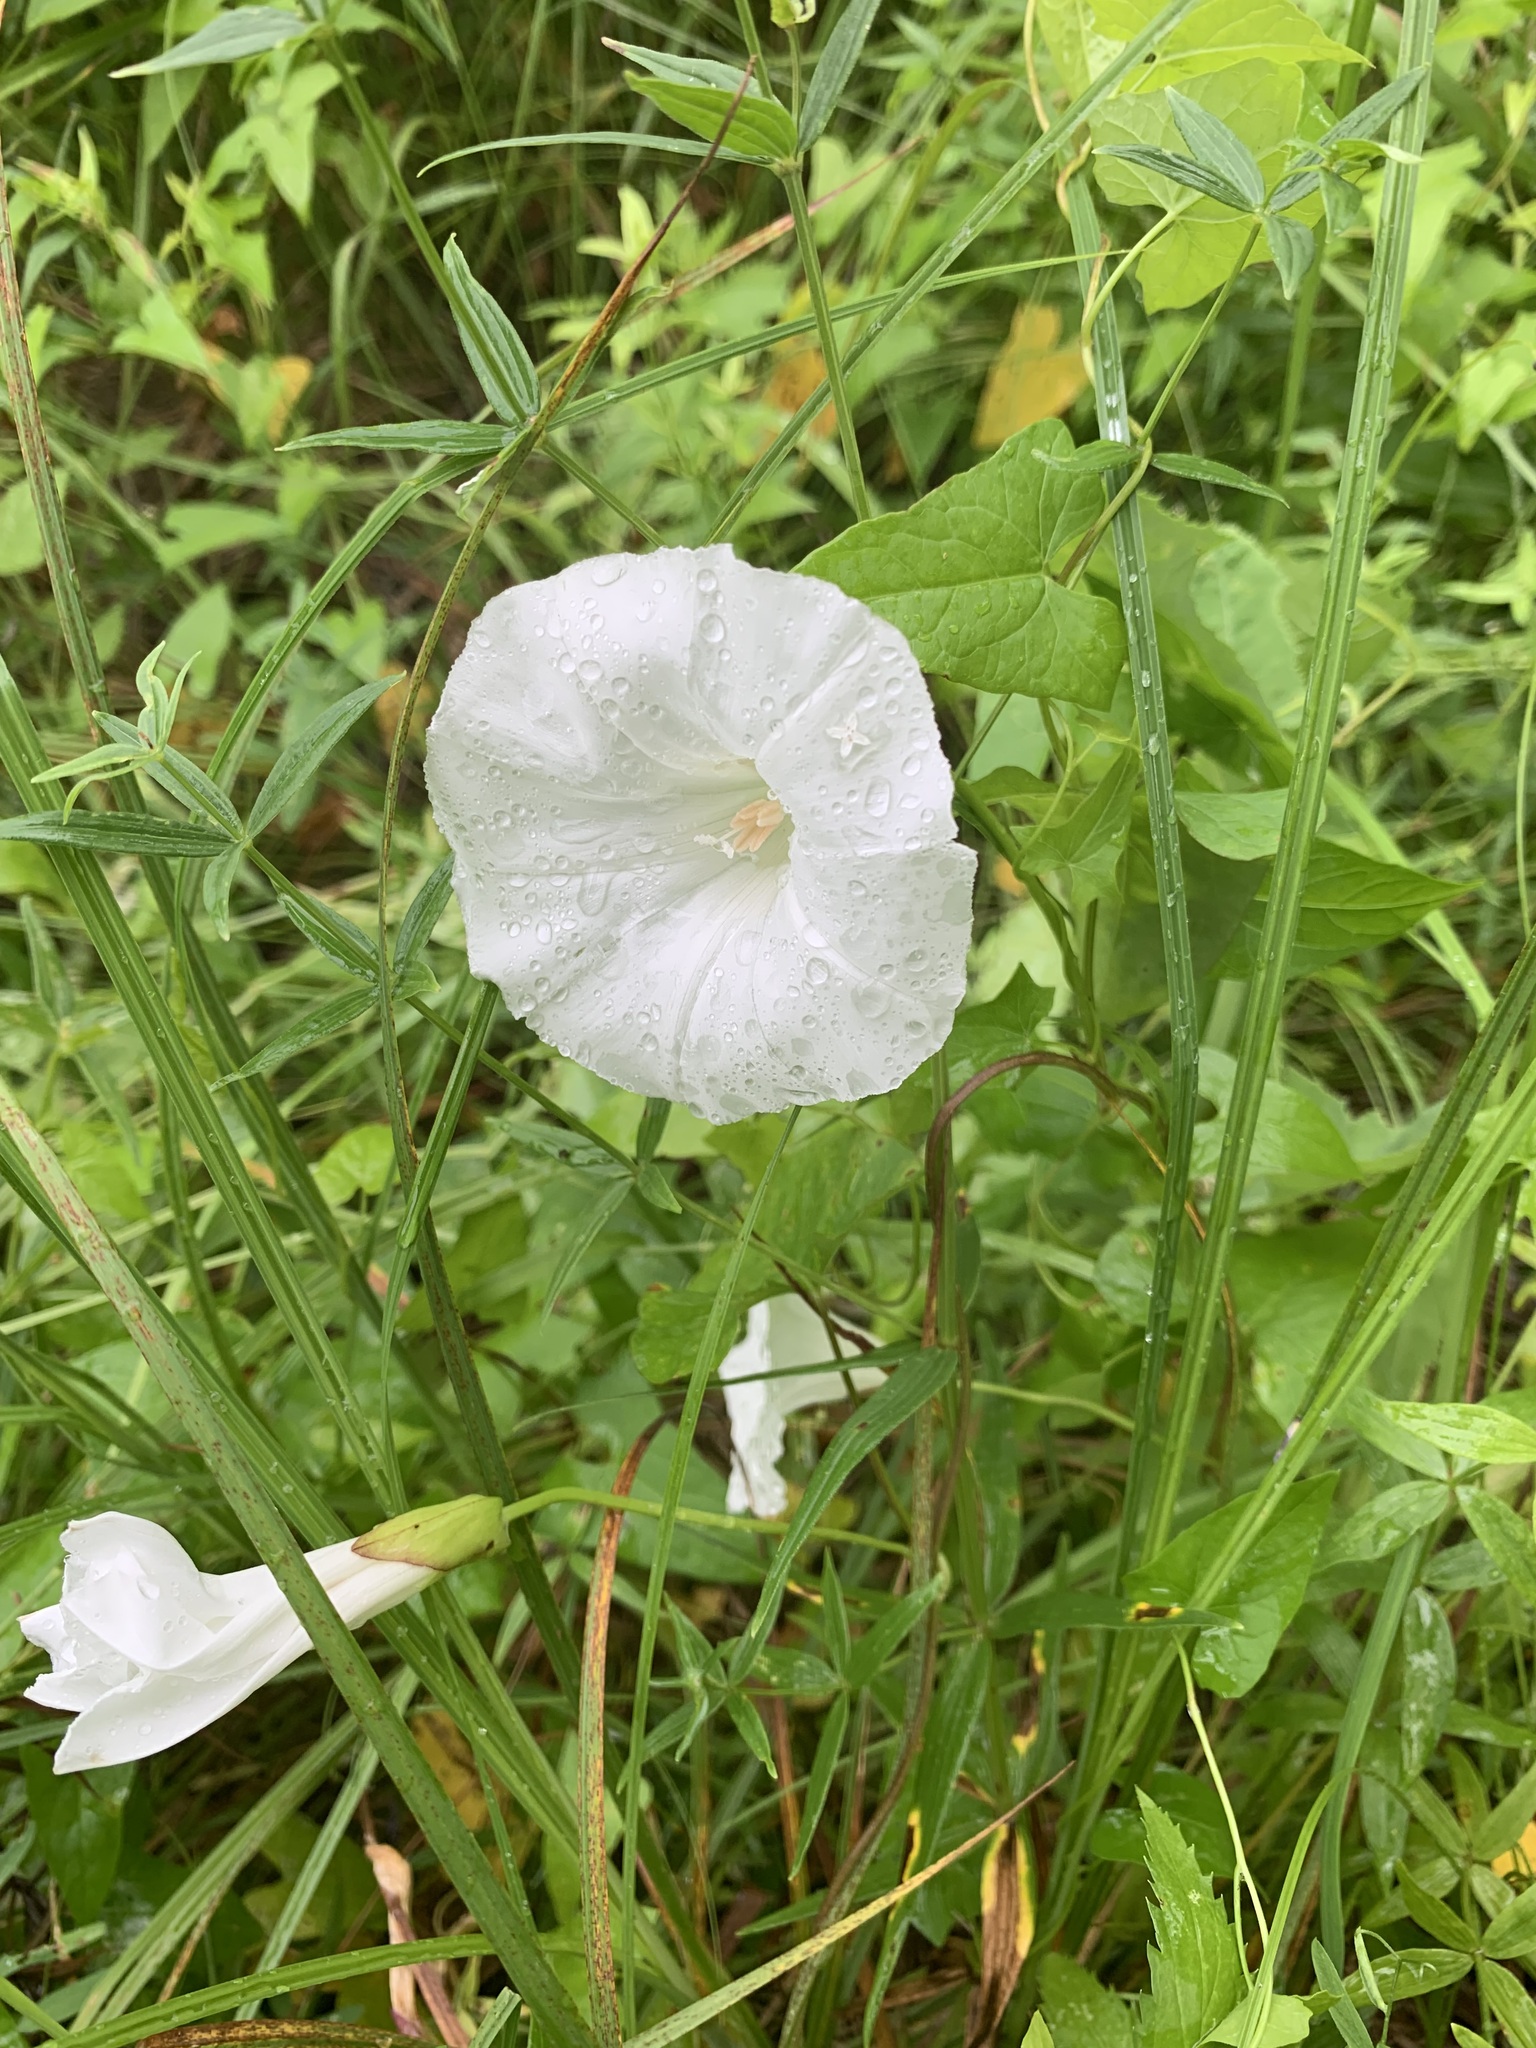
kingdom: Plantae
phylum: Tracheophyta
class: Magnoliopsida
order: Solanales
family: Convolvulaceae
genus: Calystegia
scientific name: Calystegia sepium
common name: Hedge bindweed
